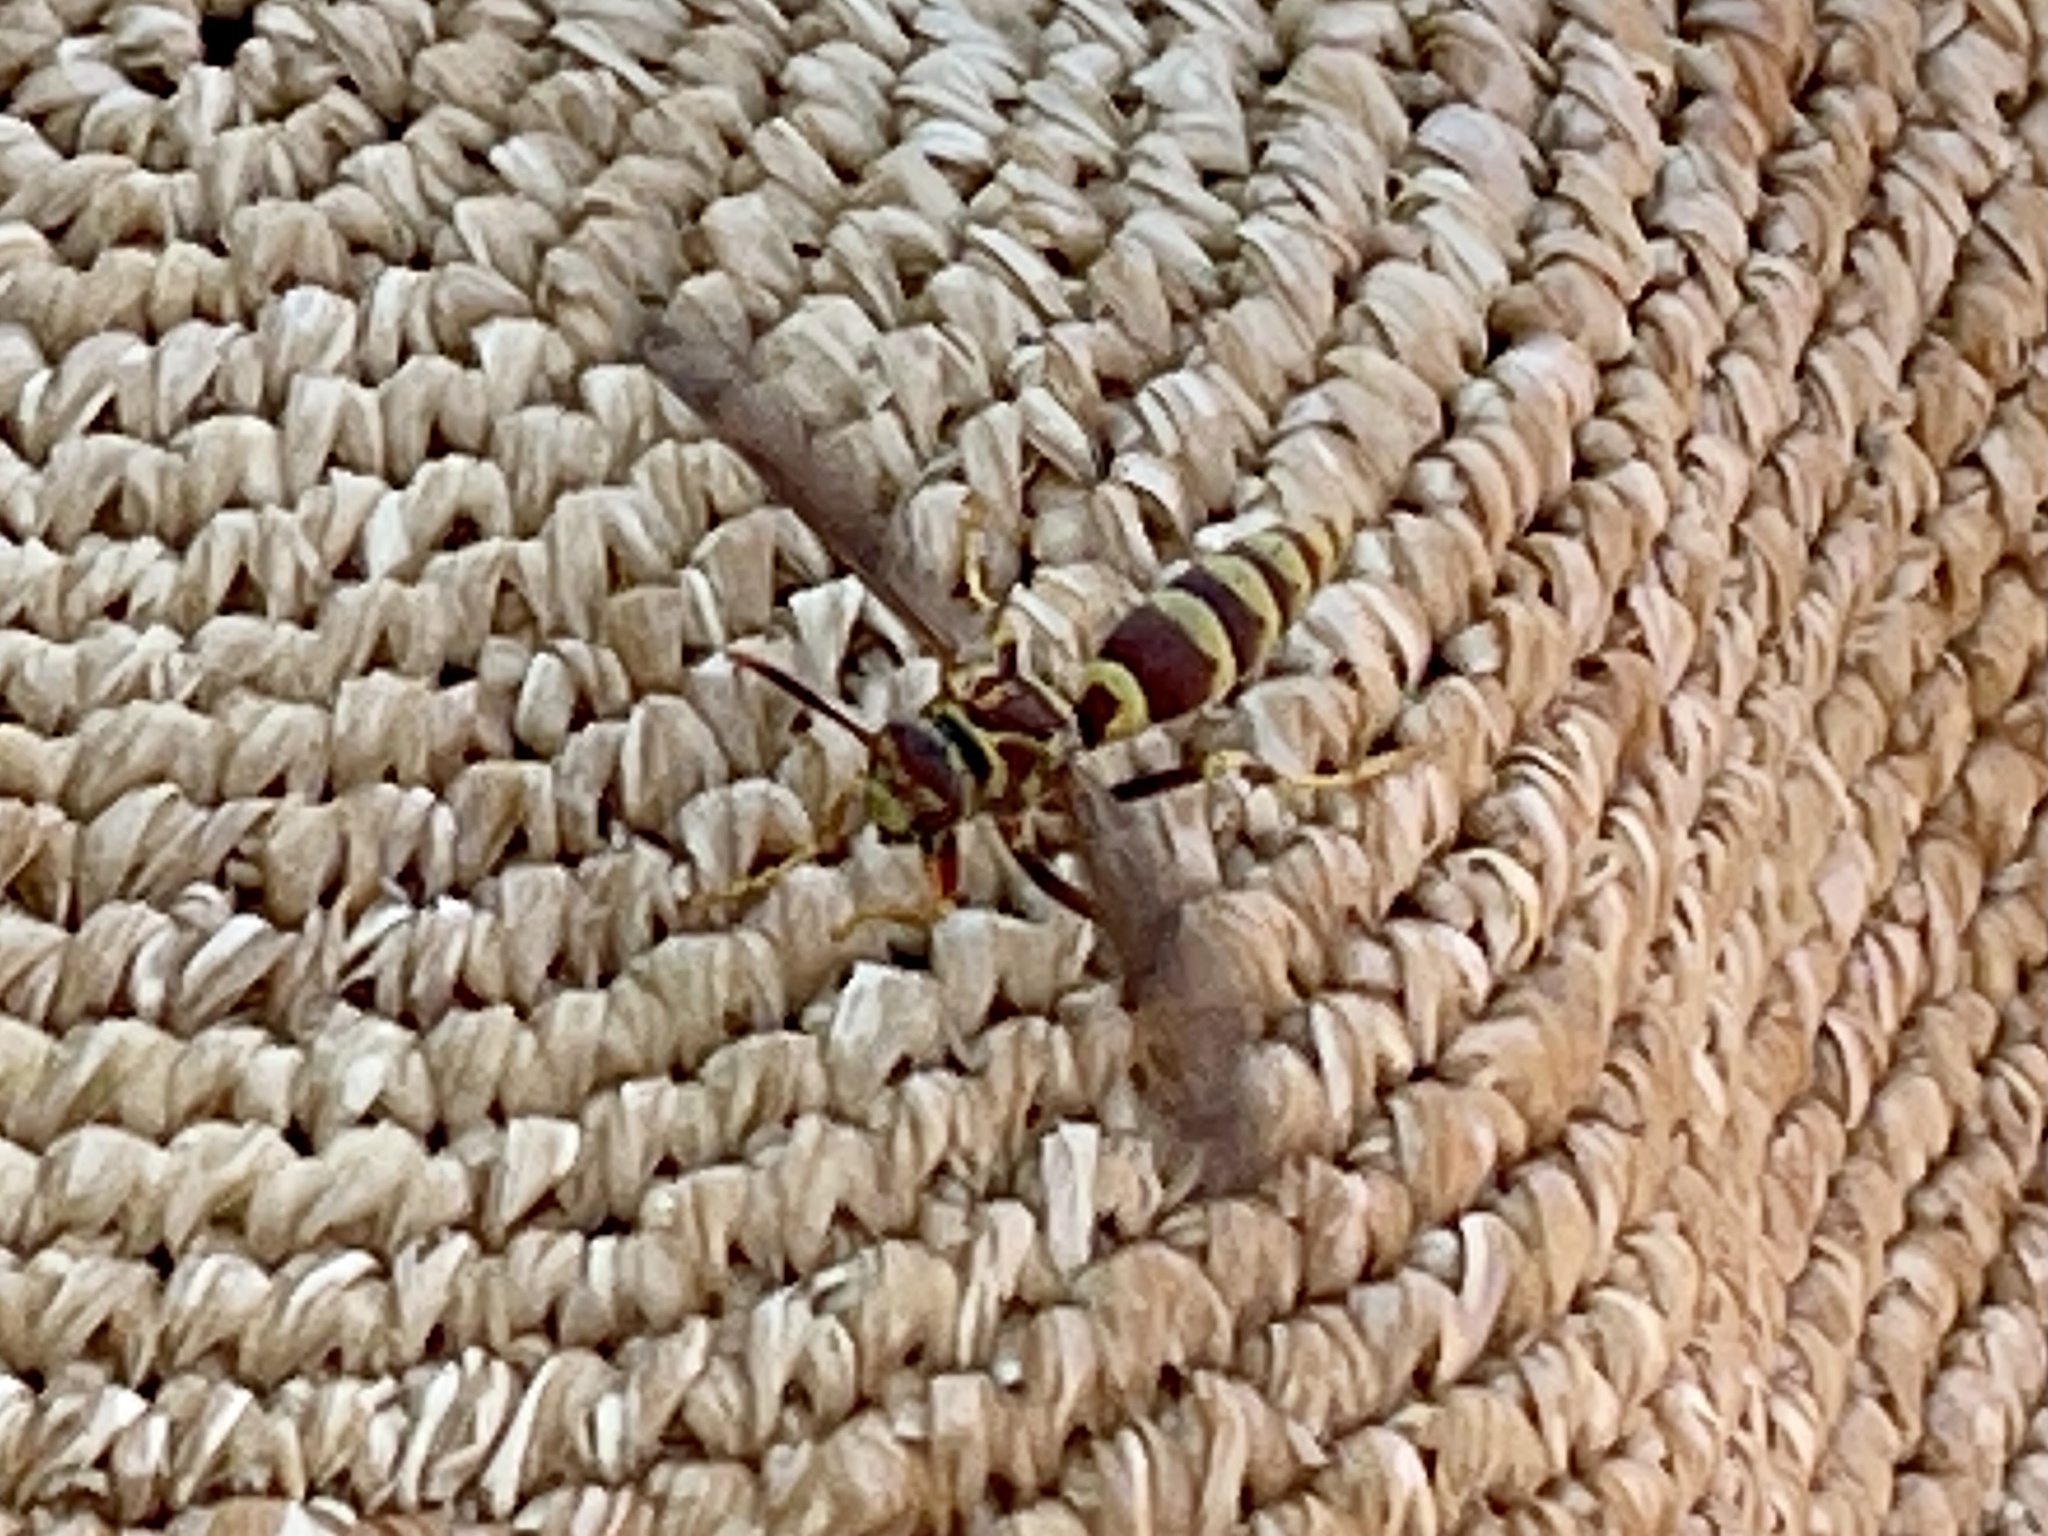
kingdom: Animalia
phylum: Arthropoda
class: Insecta
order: Hymenoptera
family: Eumenidae
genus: Polistes
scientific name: Polistes exclamans
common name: Paper wasp
